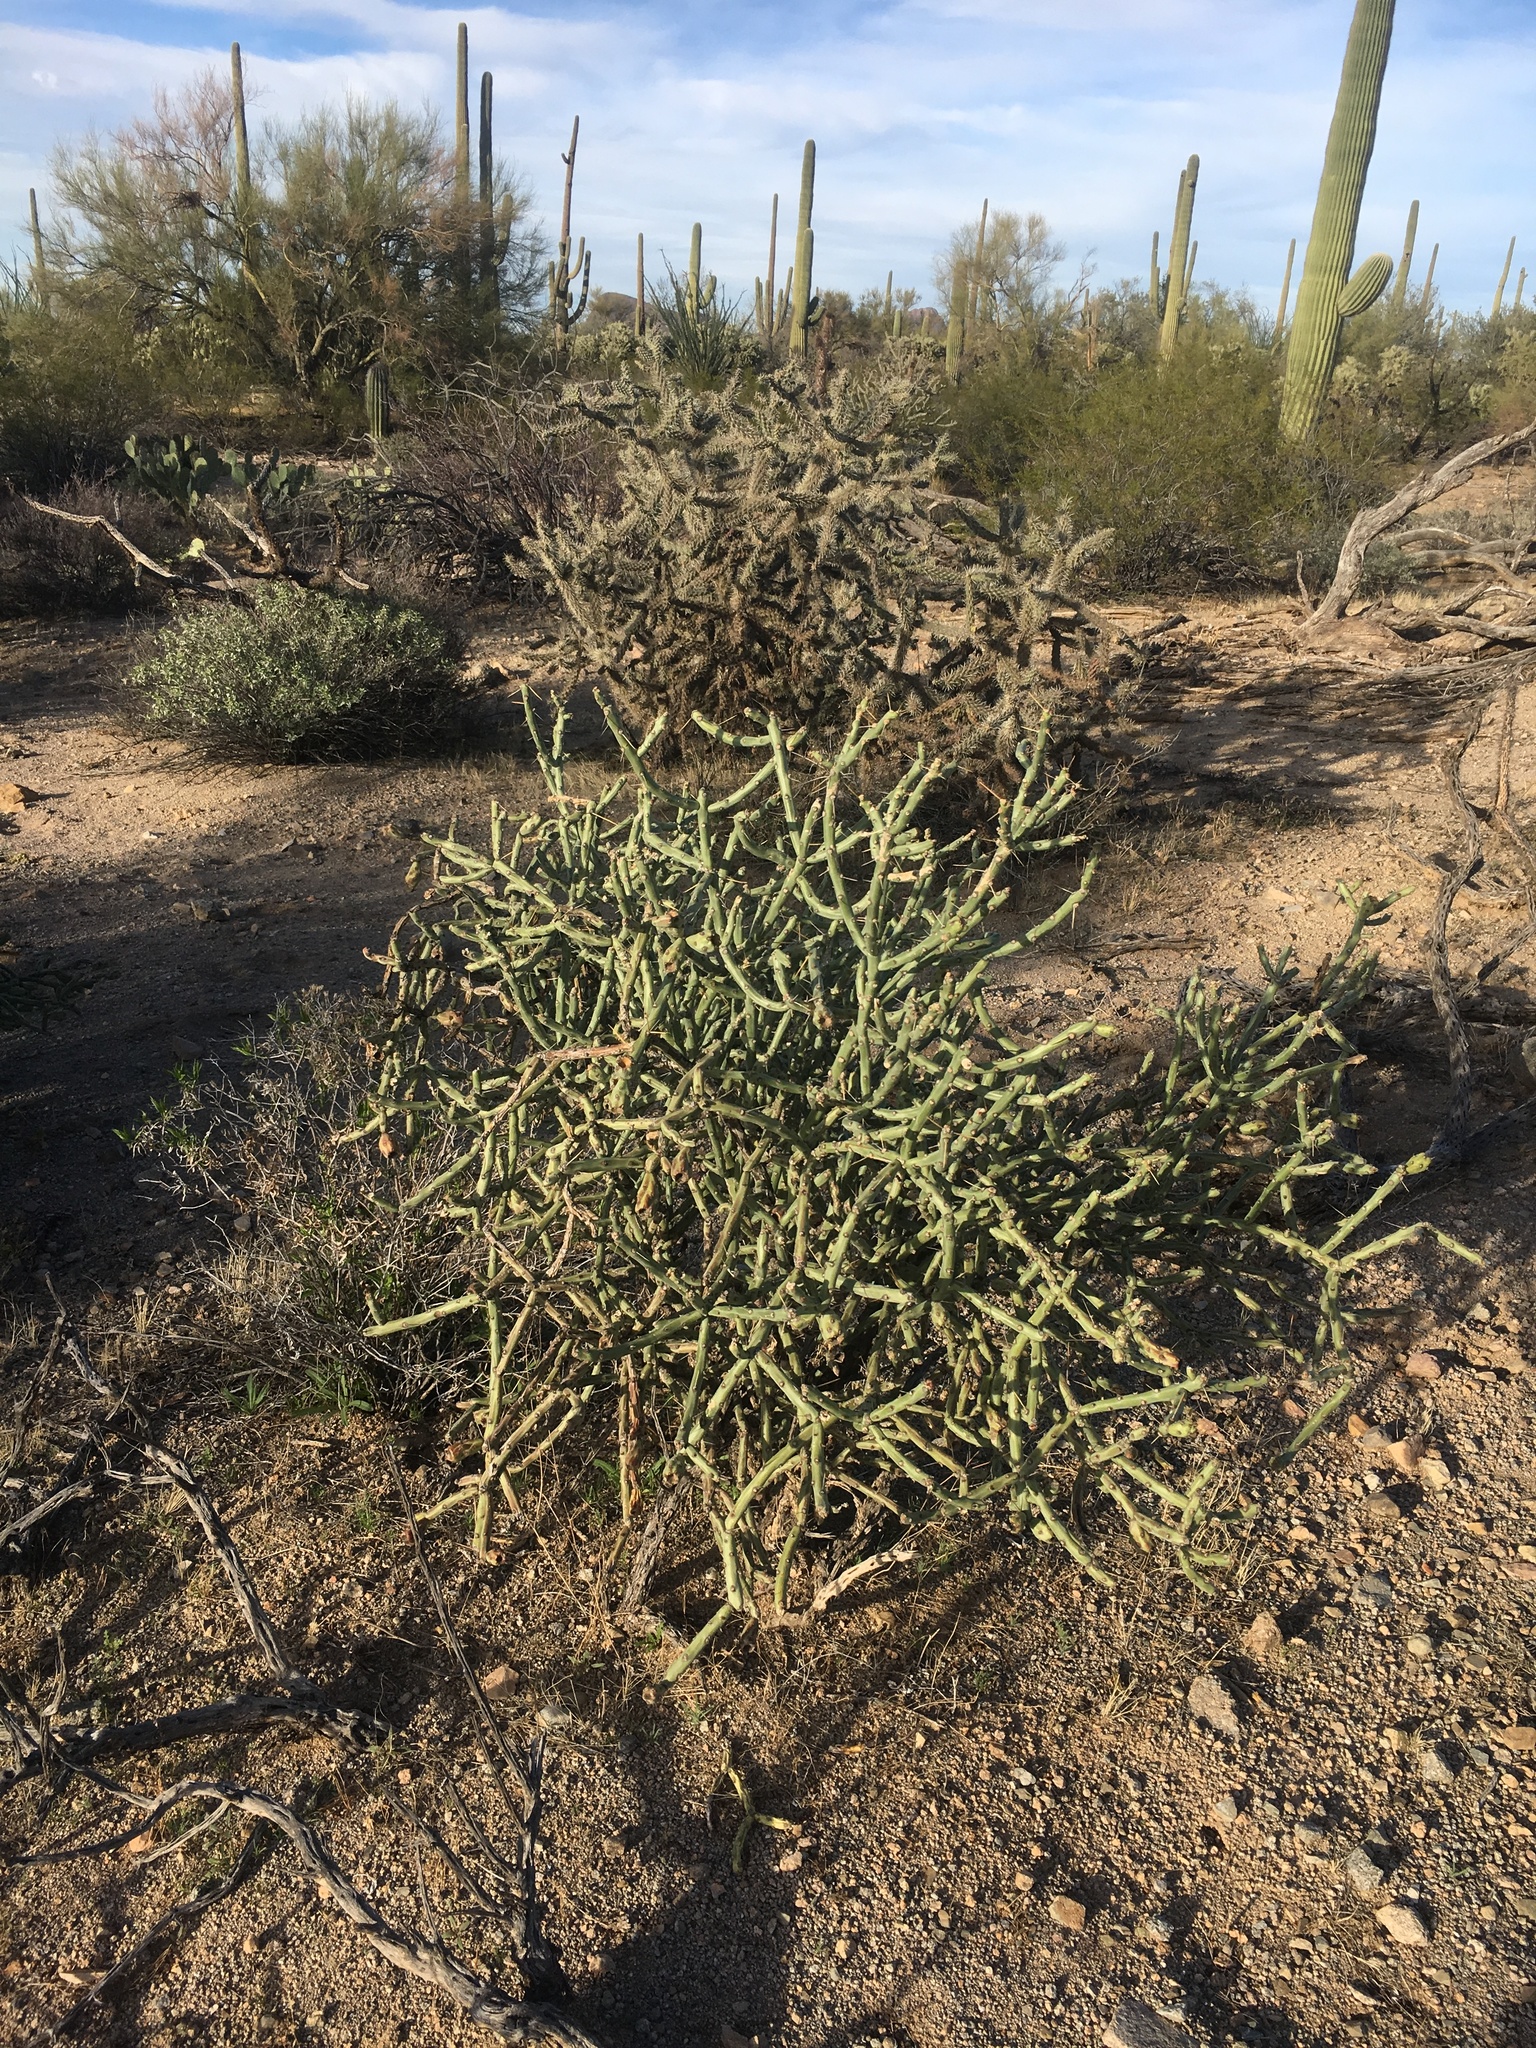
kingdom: Plantae
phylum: Tracheophyta
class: Magnoliopsida
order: Caryophyllales
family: Cactaceae
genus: Cylindropuntia
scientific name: Cylindropuntia arbuscula
